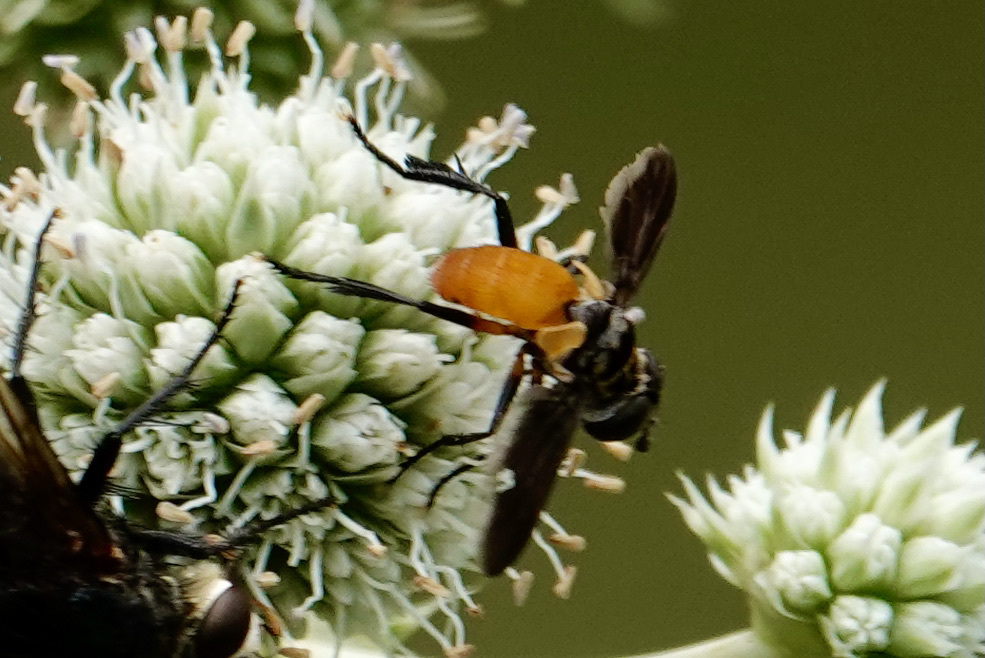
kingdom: Animalia
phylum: Arthropoda
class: Insecta
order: Diptera
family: Tachinidae
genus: Trichopoda
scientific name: Trichopoda pennipes
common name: Tachinid fly
